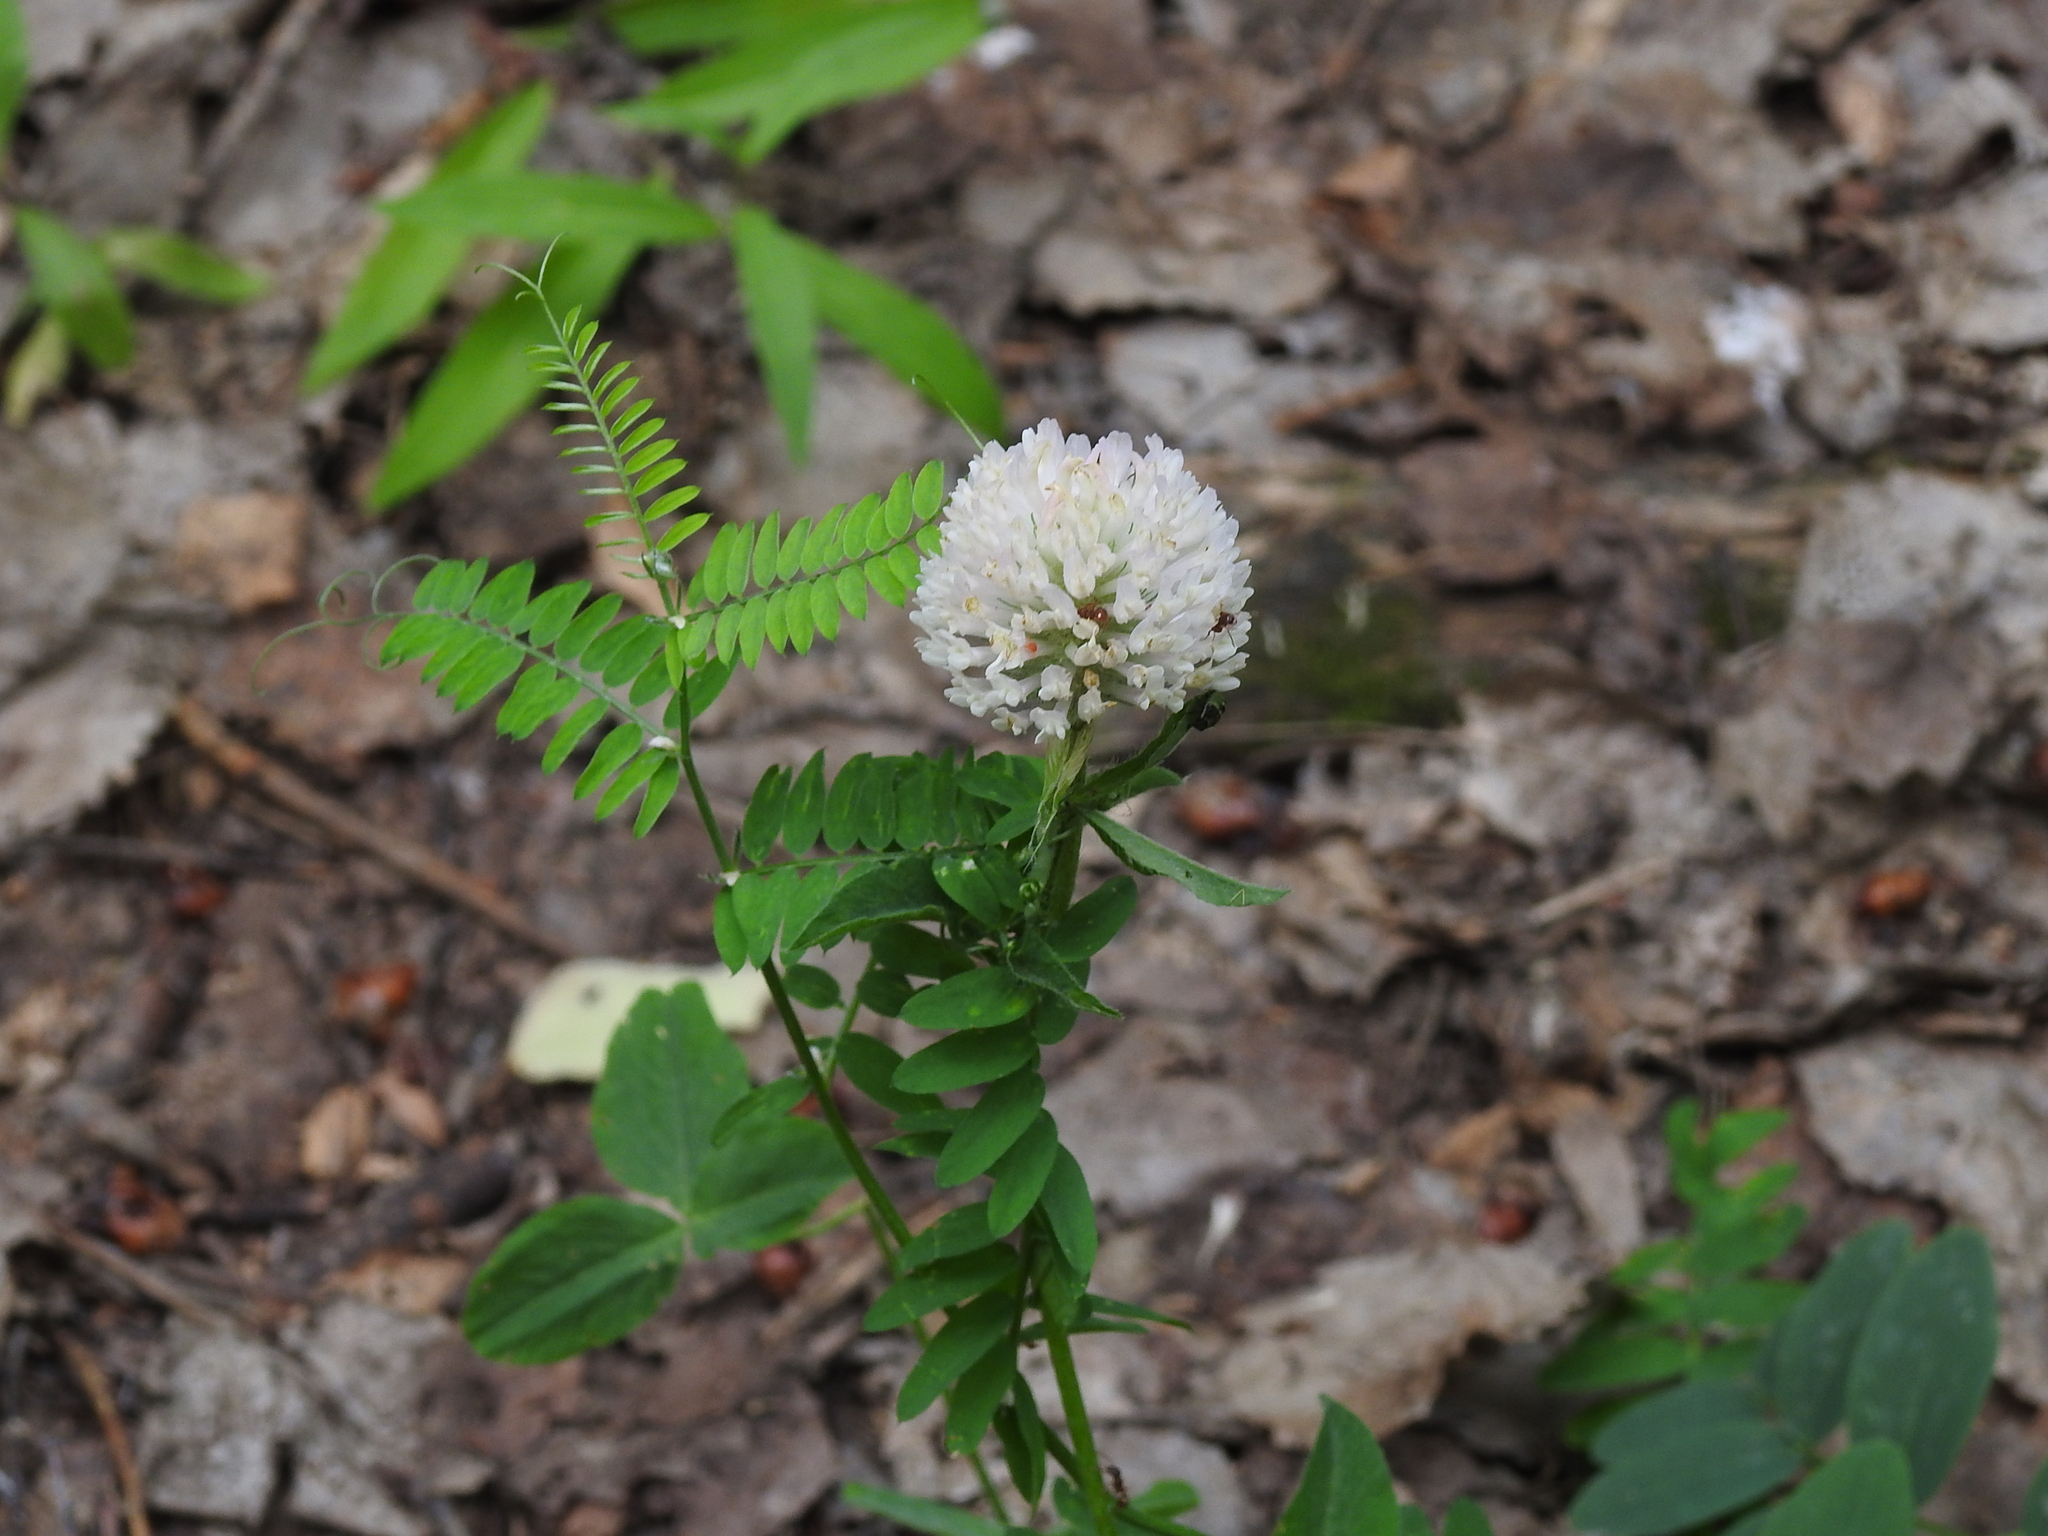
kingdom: Plantae
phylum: Tracheophyta
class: Magnoliopsida
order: Fabales
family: Fabaceae
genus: Trifolium
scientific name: Trifolium hybridum
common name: Alsike clover
